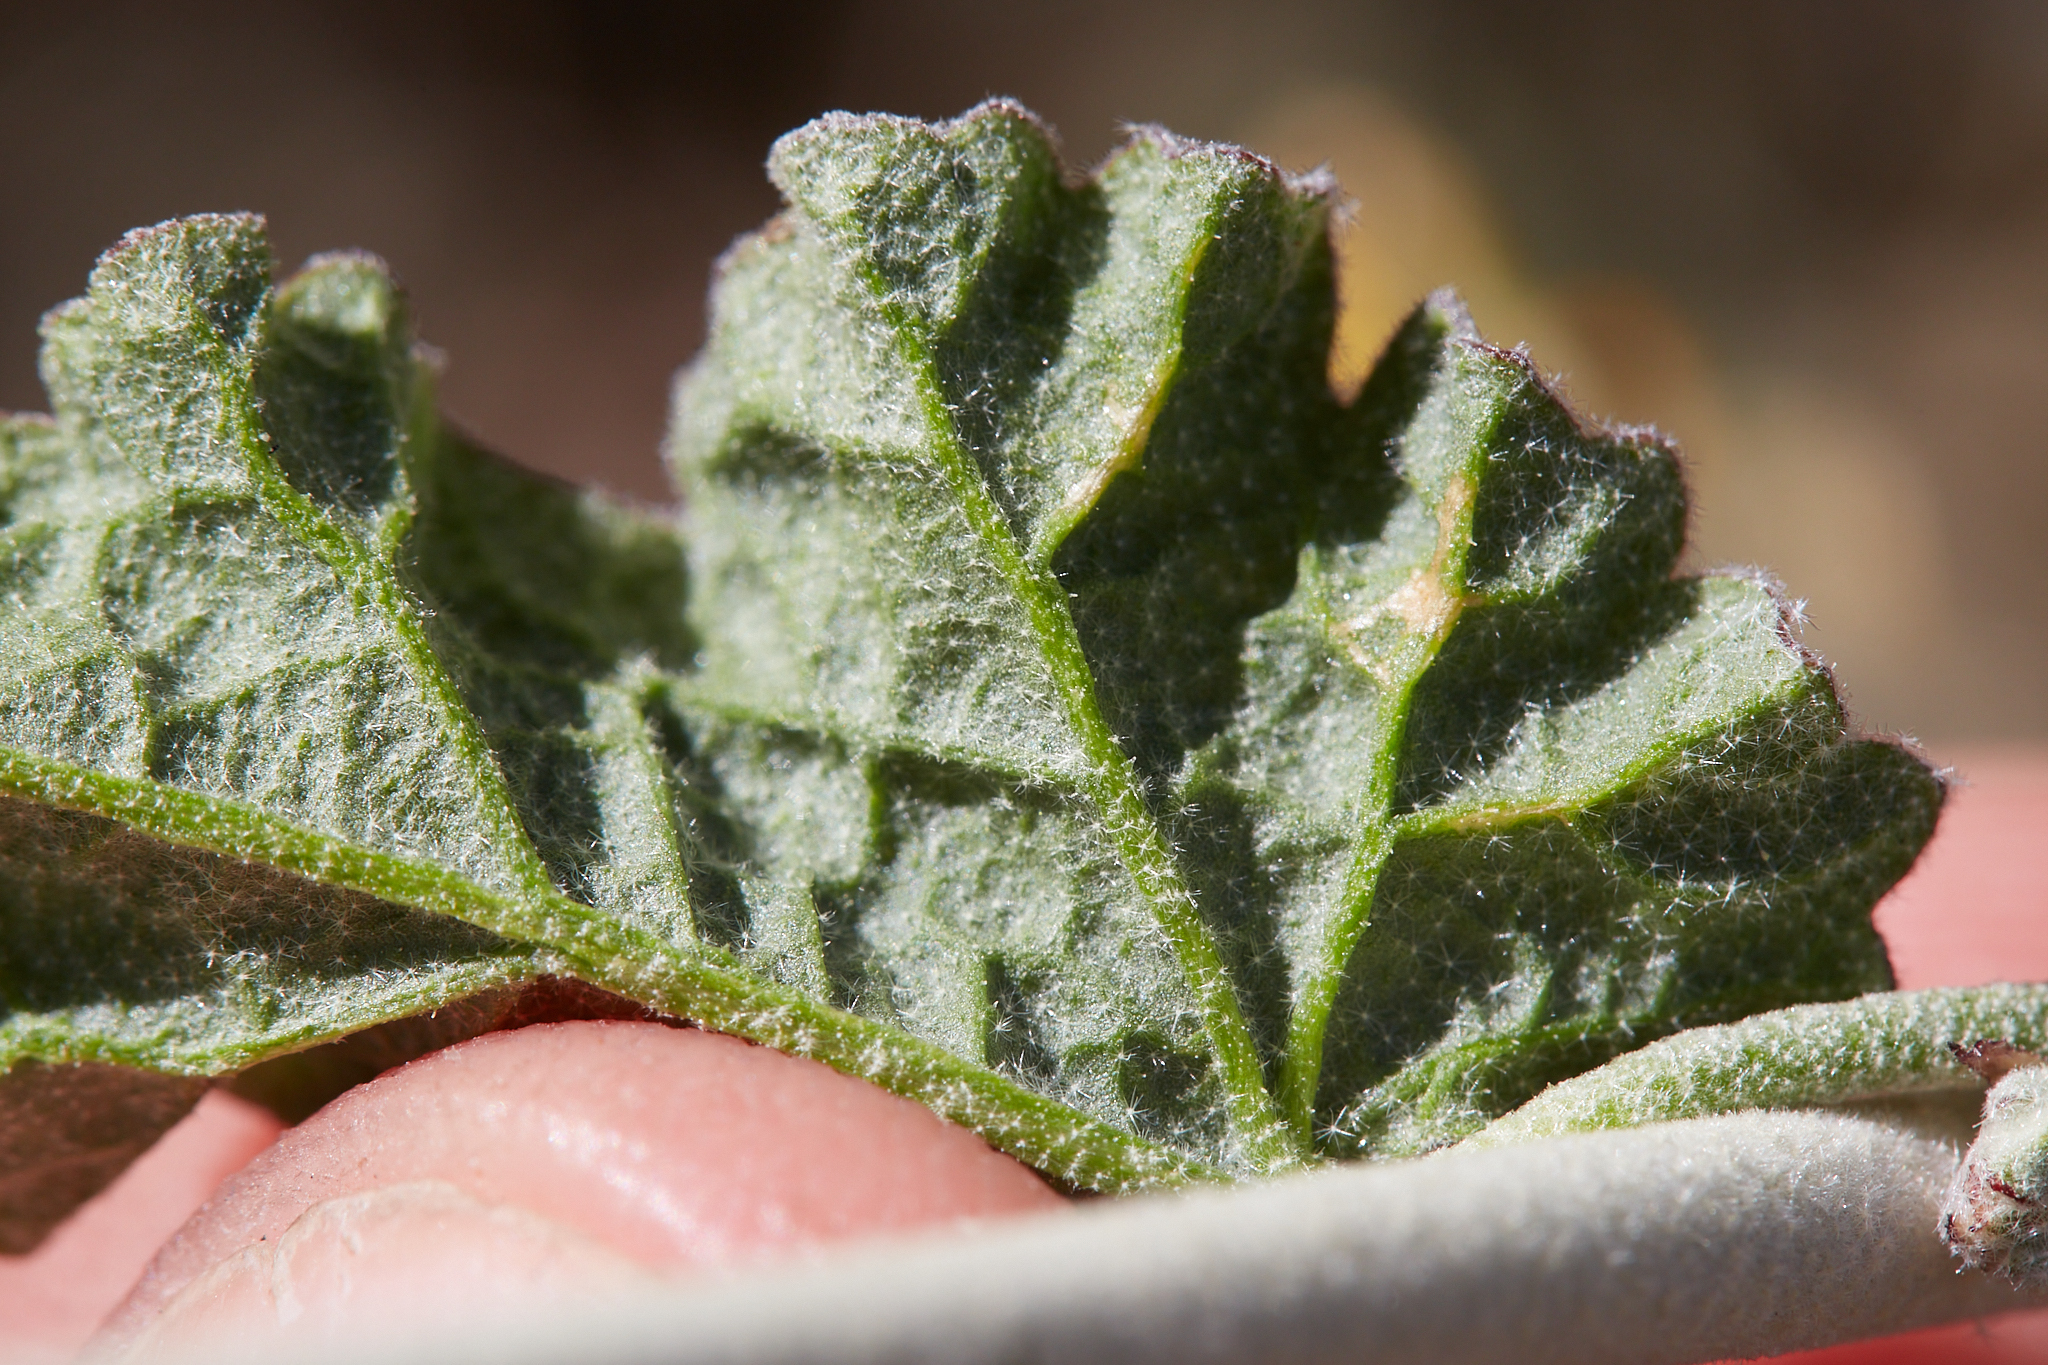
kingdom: Plantae
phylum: Tracheophyta
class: Magnoliopsida
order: Malvales
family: Malvaceae
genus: Sphaeralcea
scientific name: Sphaeralcea ambigua
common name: Apricot globe-mallow
